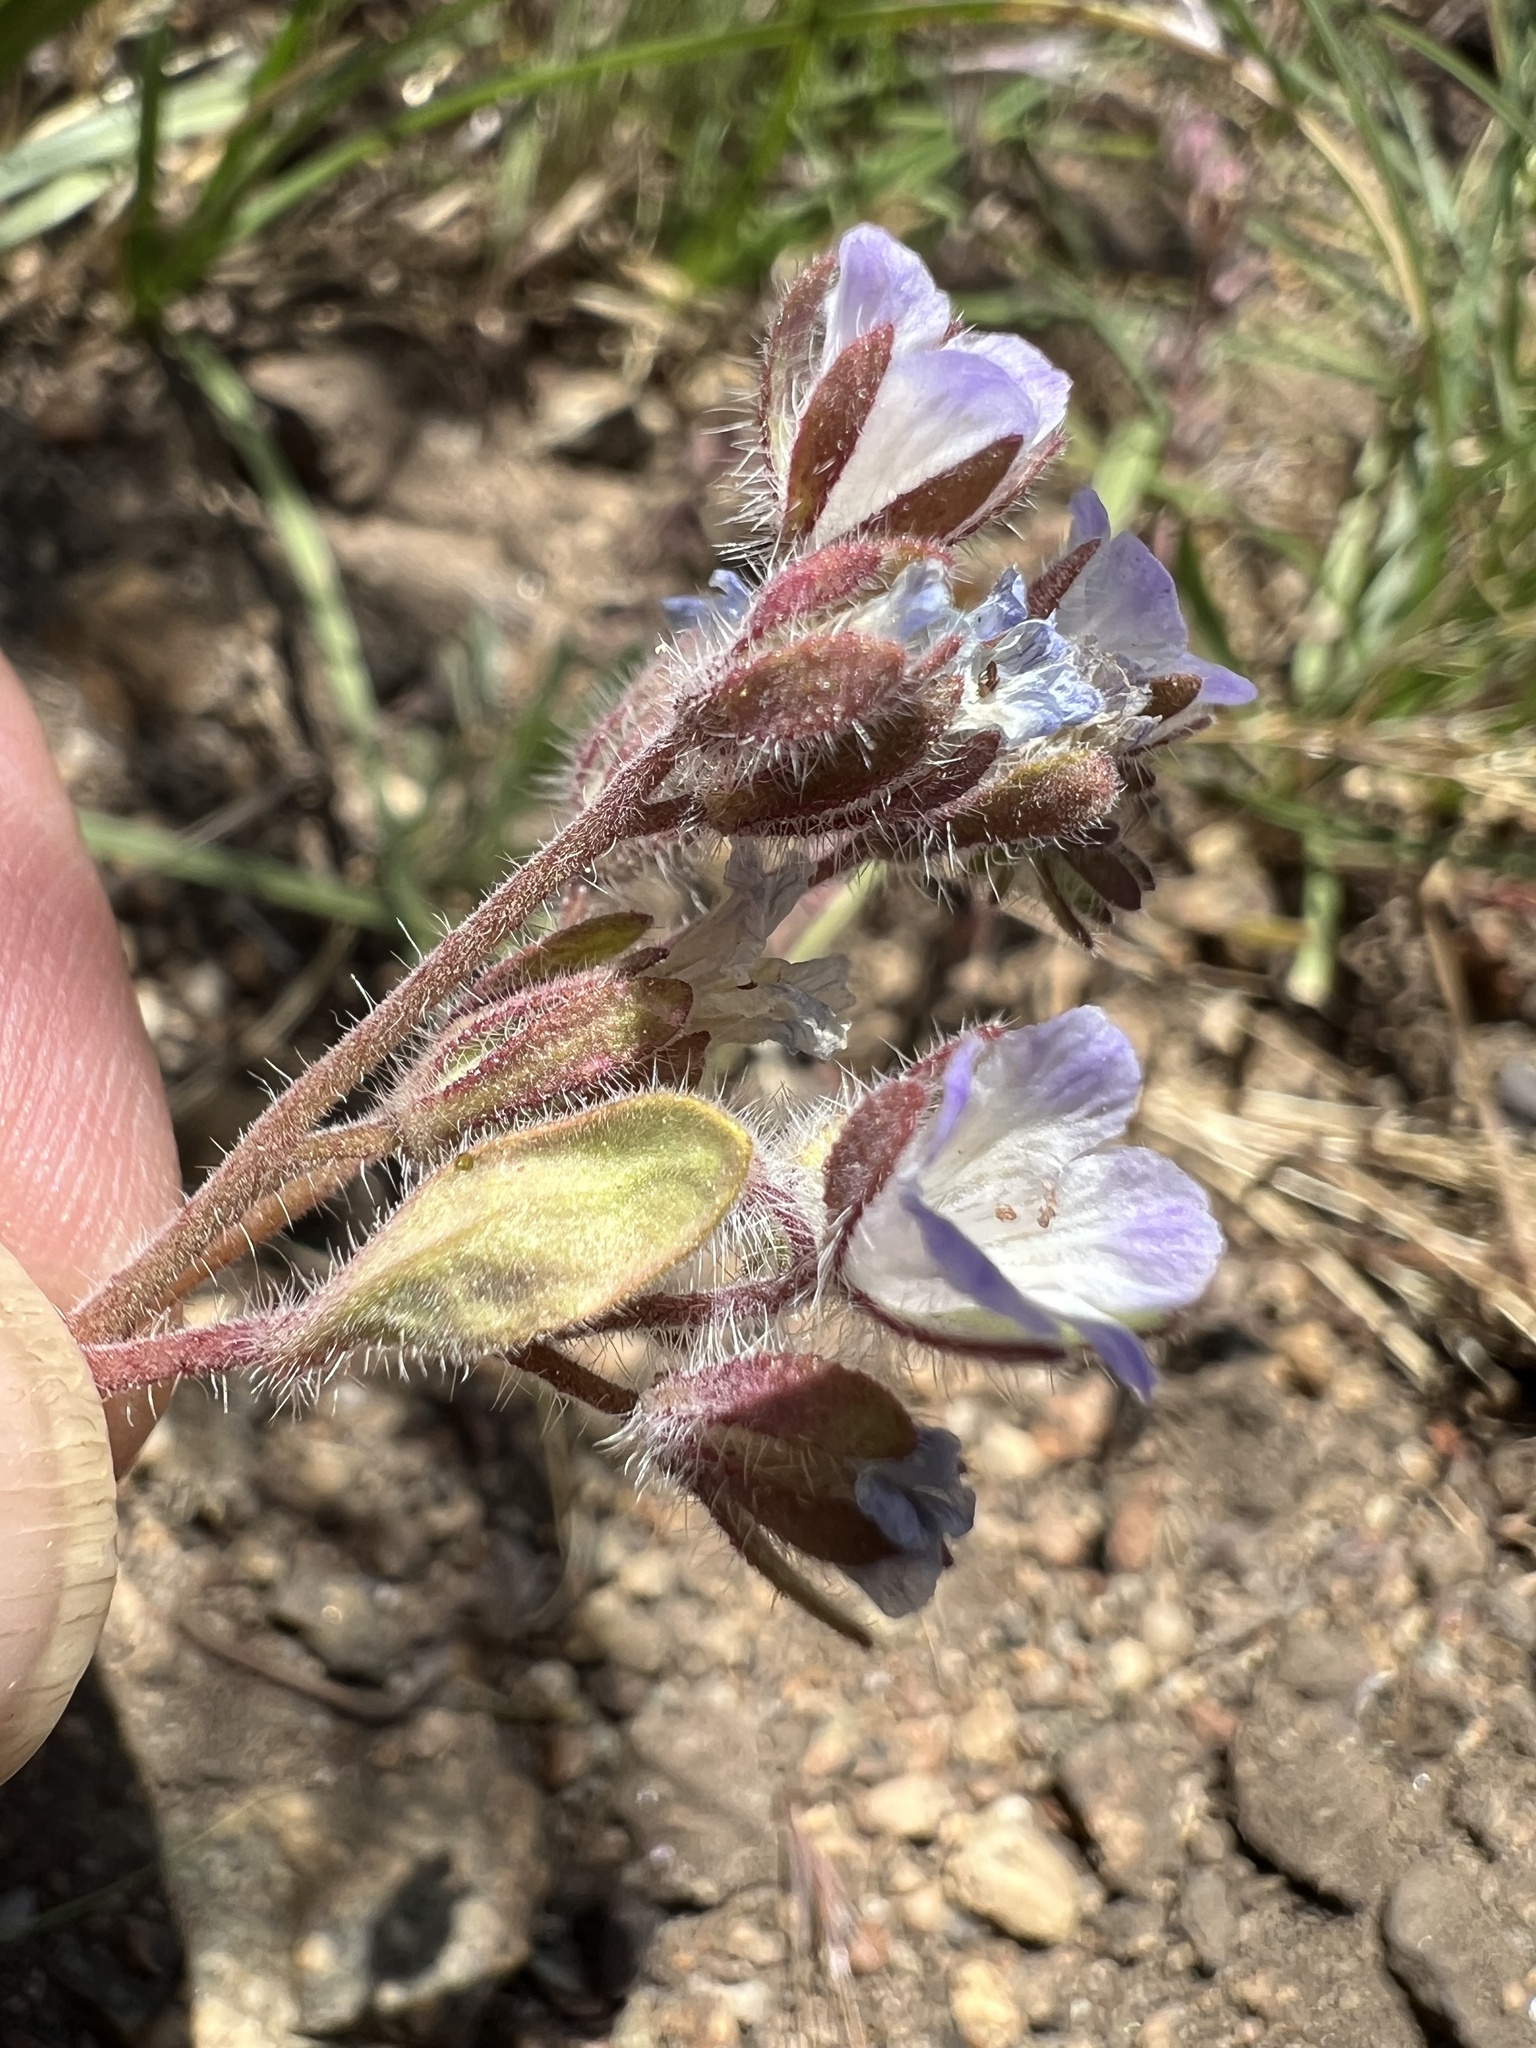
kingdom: Plantae
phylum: Tracheophyta
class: Magnoliopsida
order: Boraginales
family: Hydrophyllaceae
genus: Phacelia
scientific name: Phacelia curvipes
